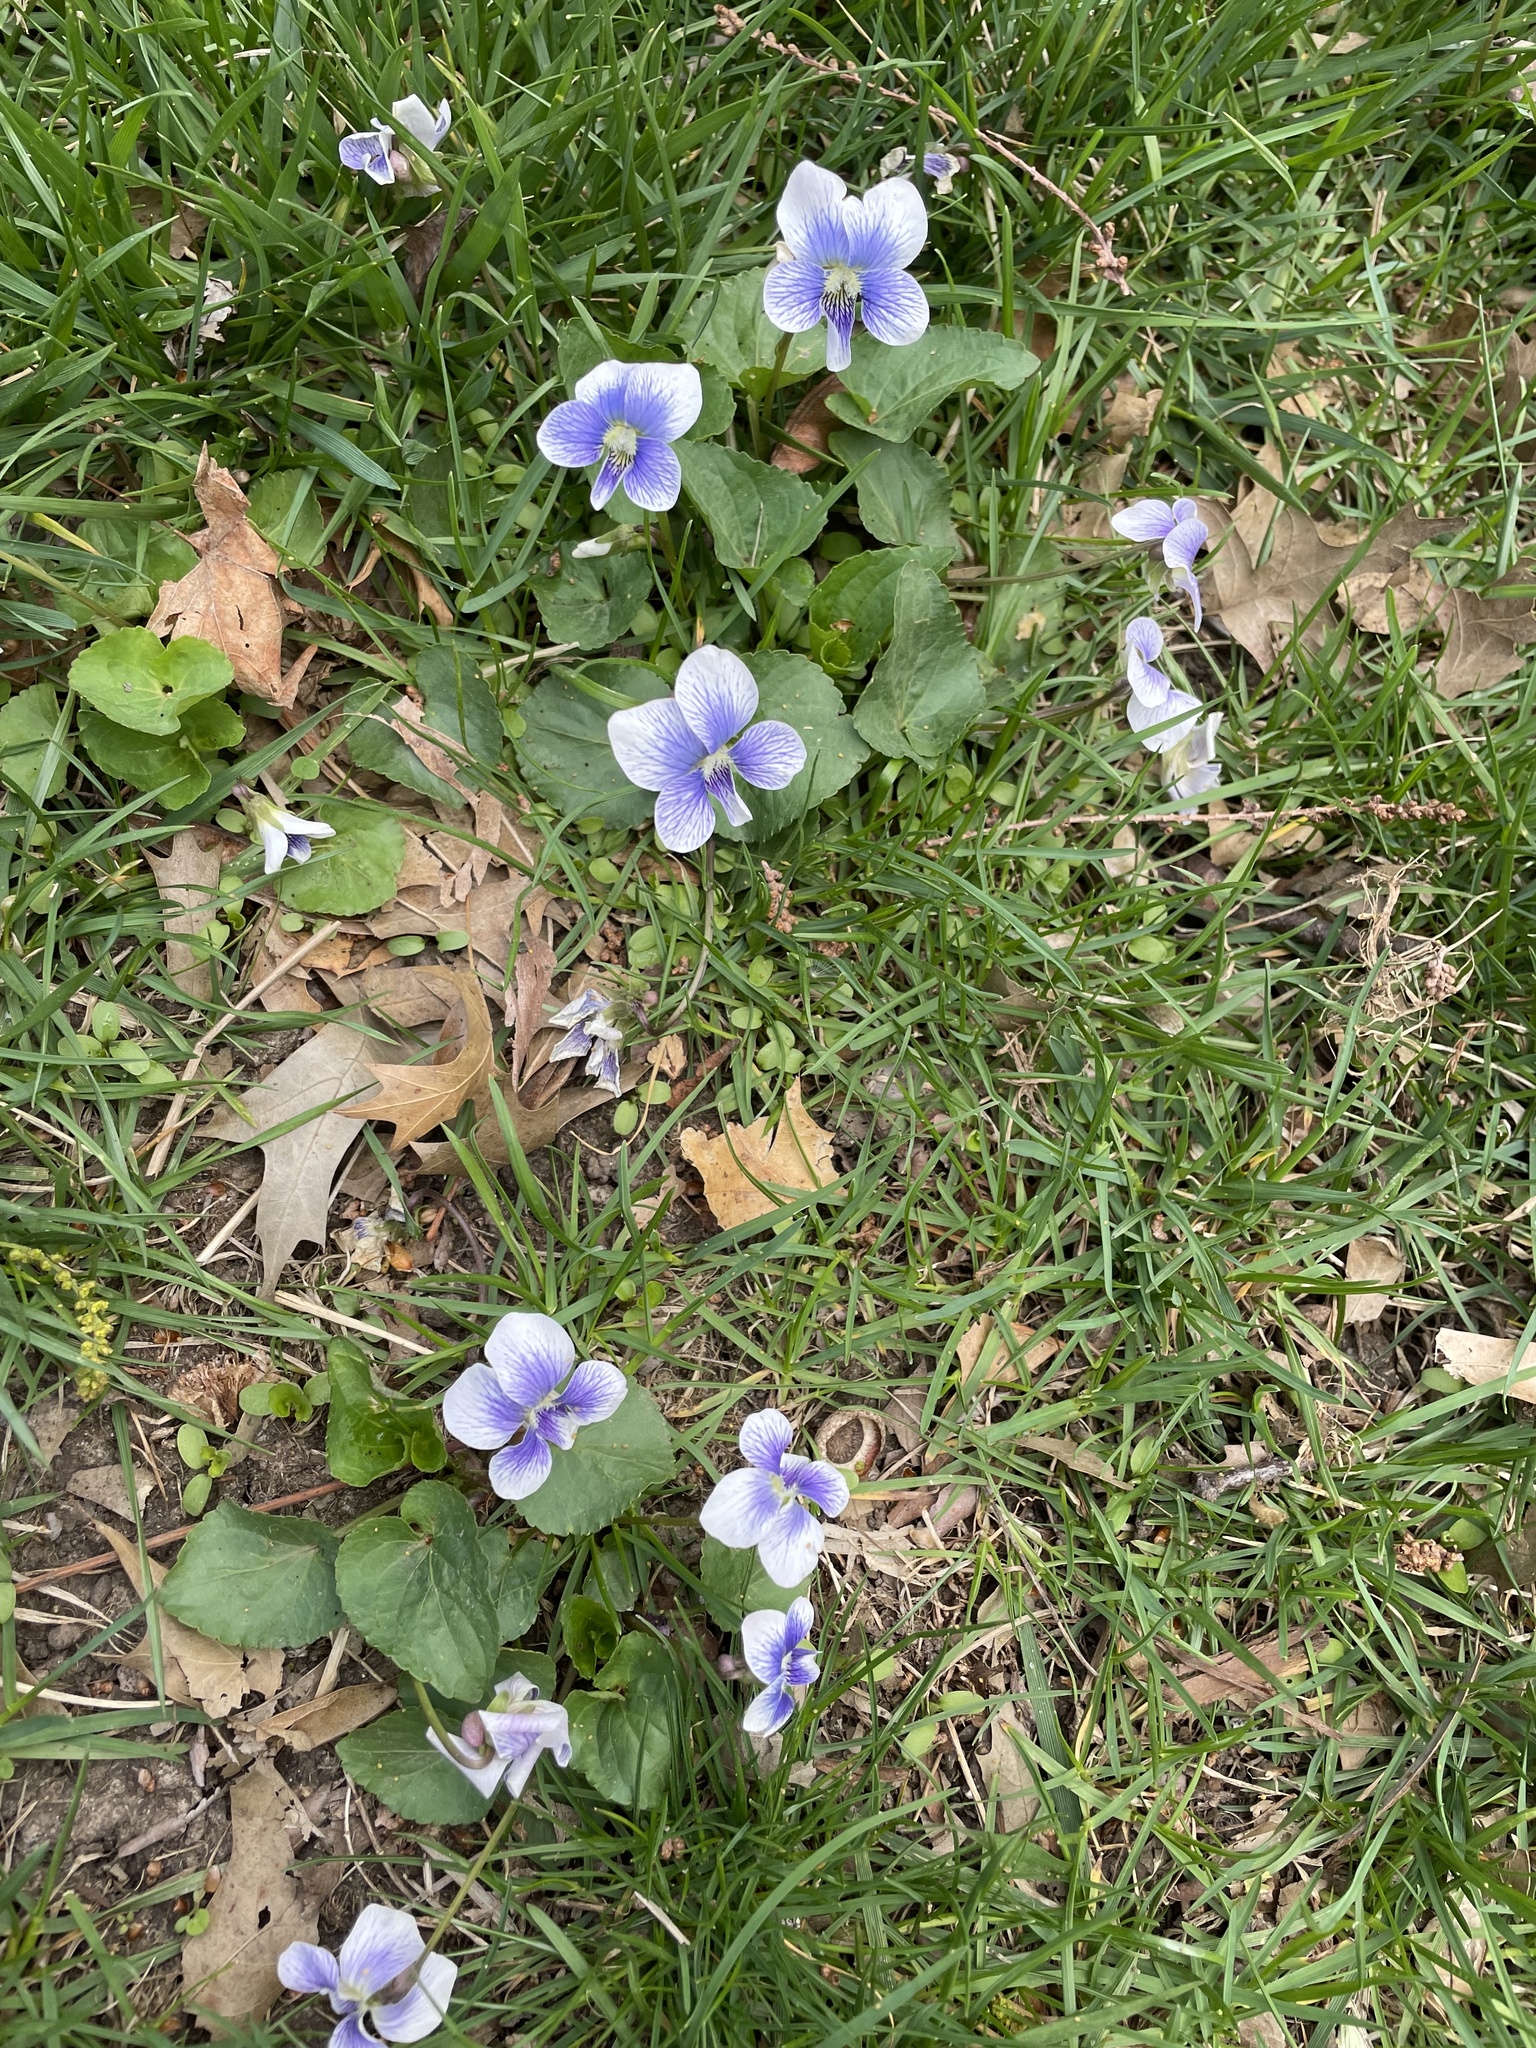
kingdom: Plantae
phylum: Tracheophyta
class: Magnoliopsida
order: Malpighiales
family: Violaceae
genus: Viola
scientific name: Viola sororia
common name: Dooryard violet
